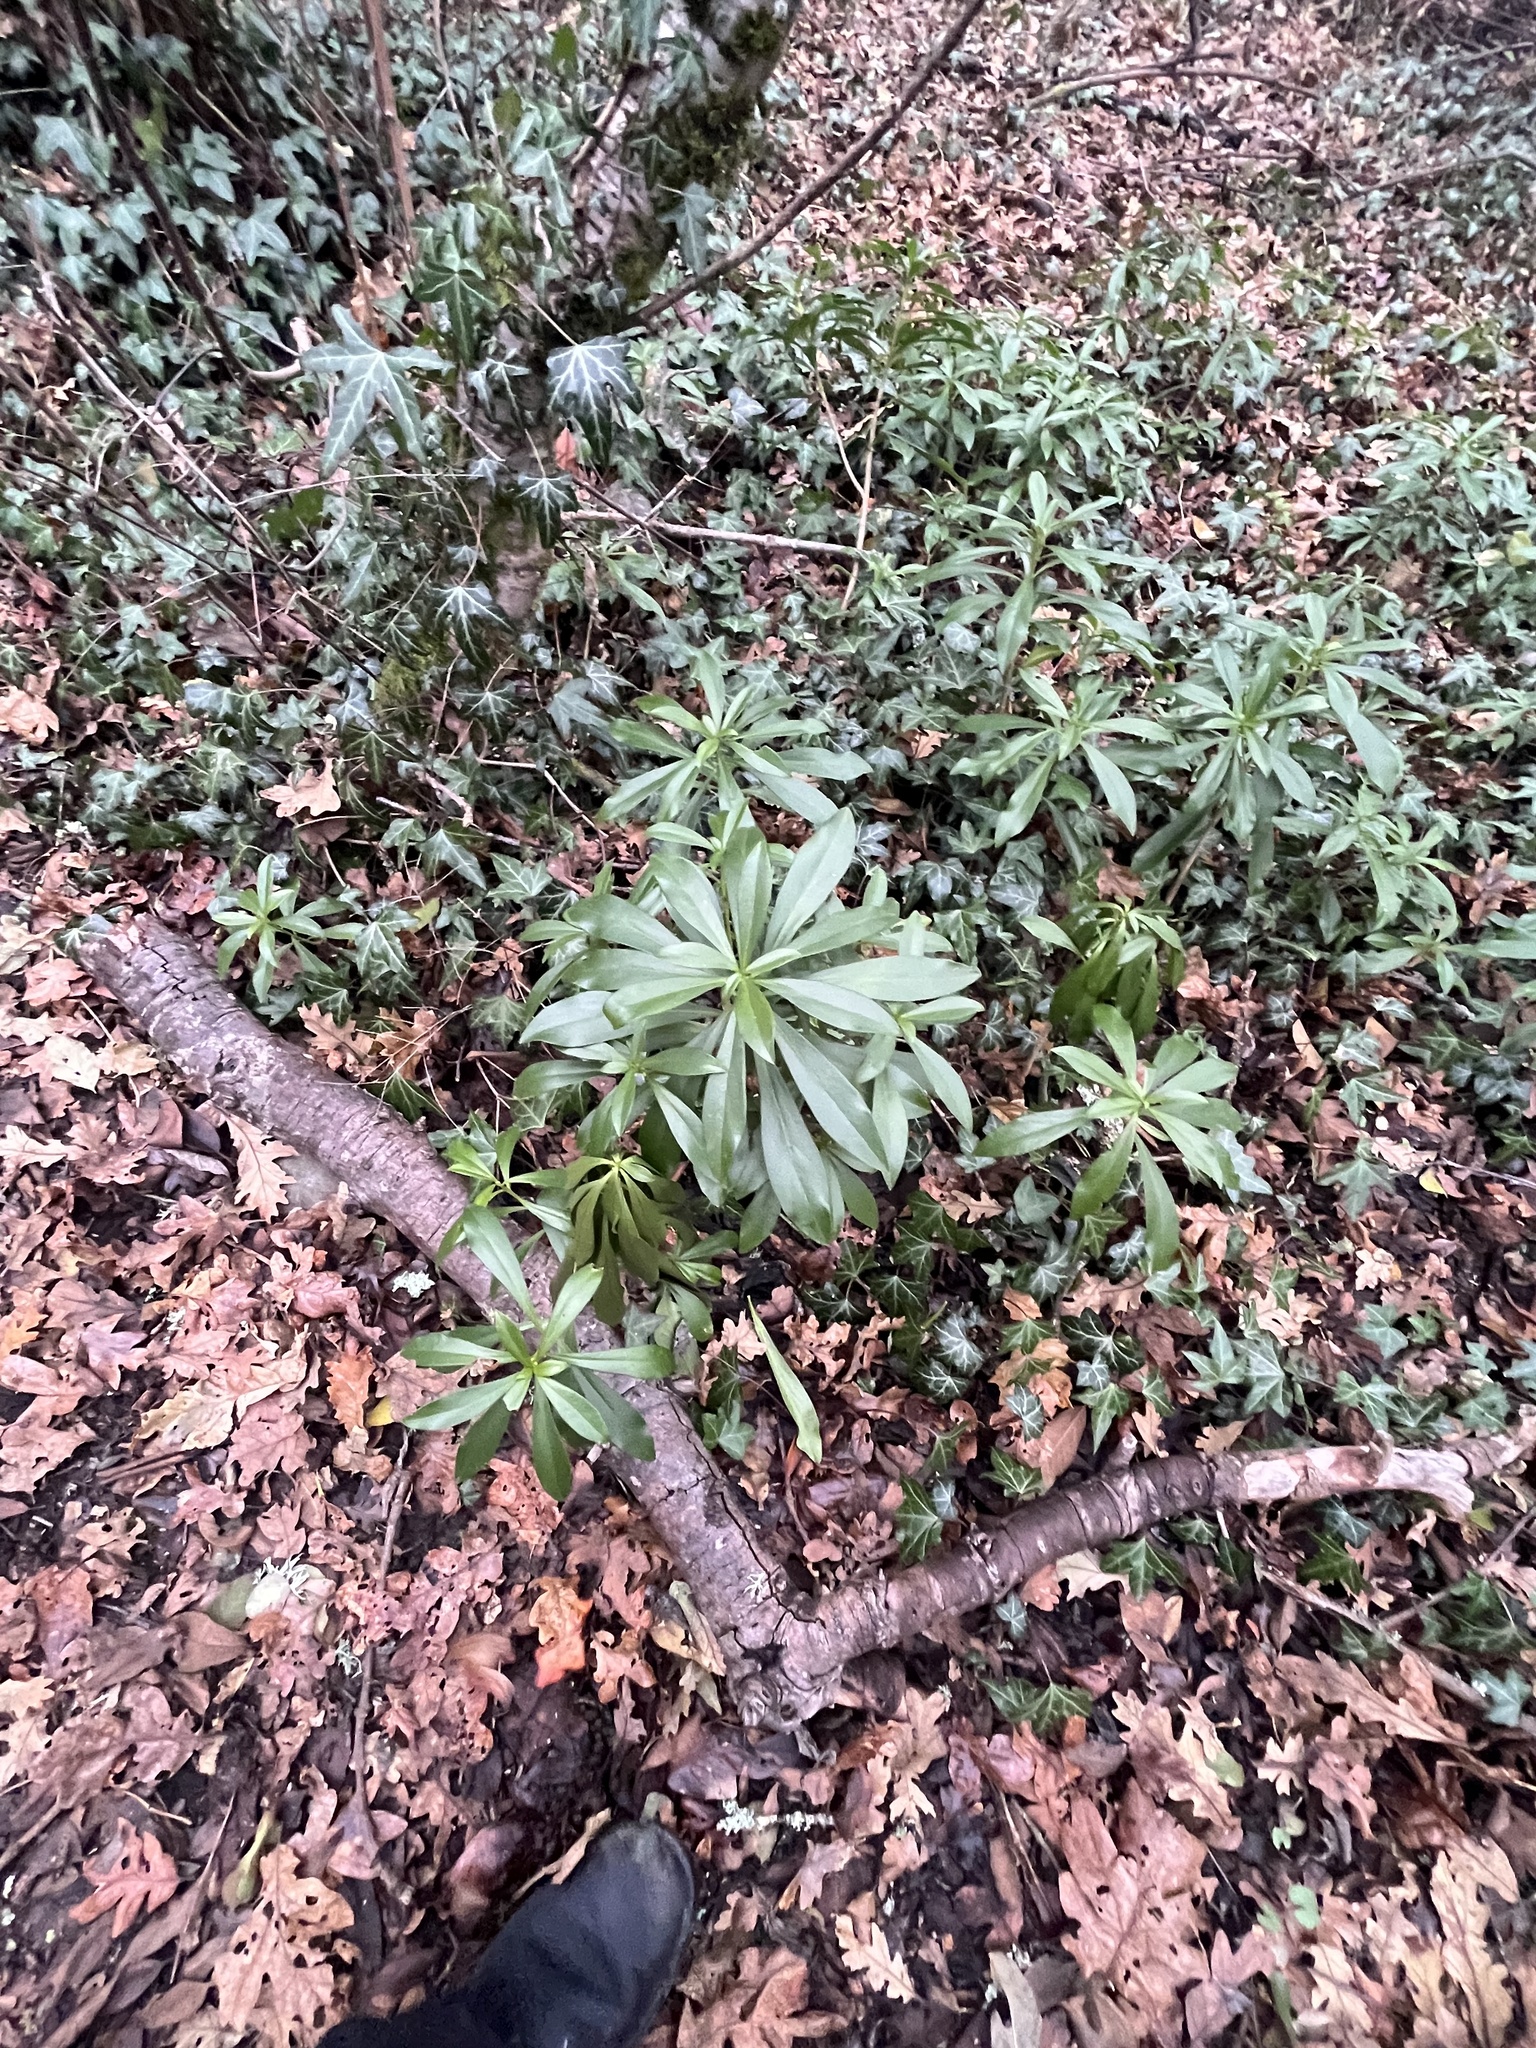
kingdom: Plantae
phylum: Tracheophyta
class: Magnoliopsida
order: Malvales
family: Thymelaeaceae
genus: Daphne
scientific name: Daphne laureola
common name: Spurge-laurel
